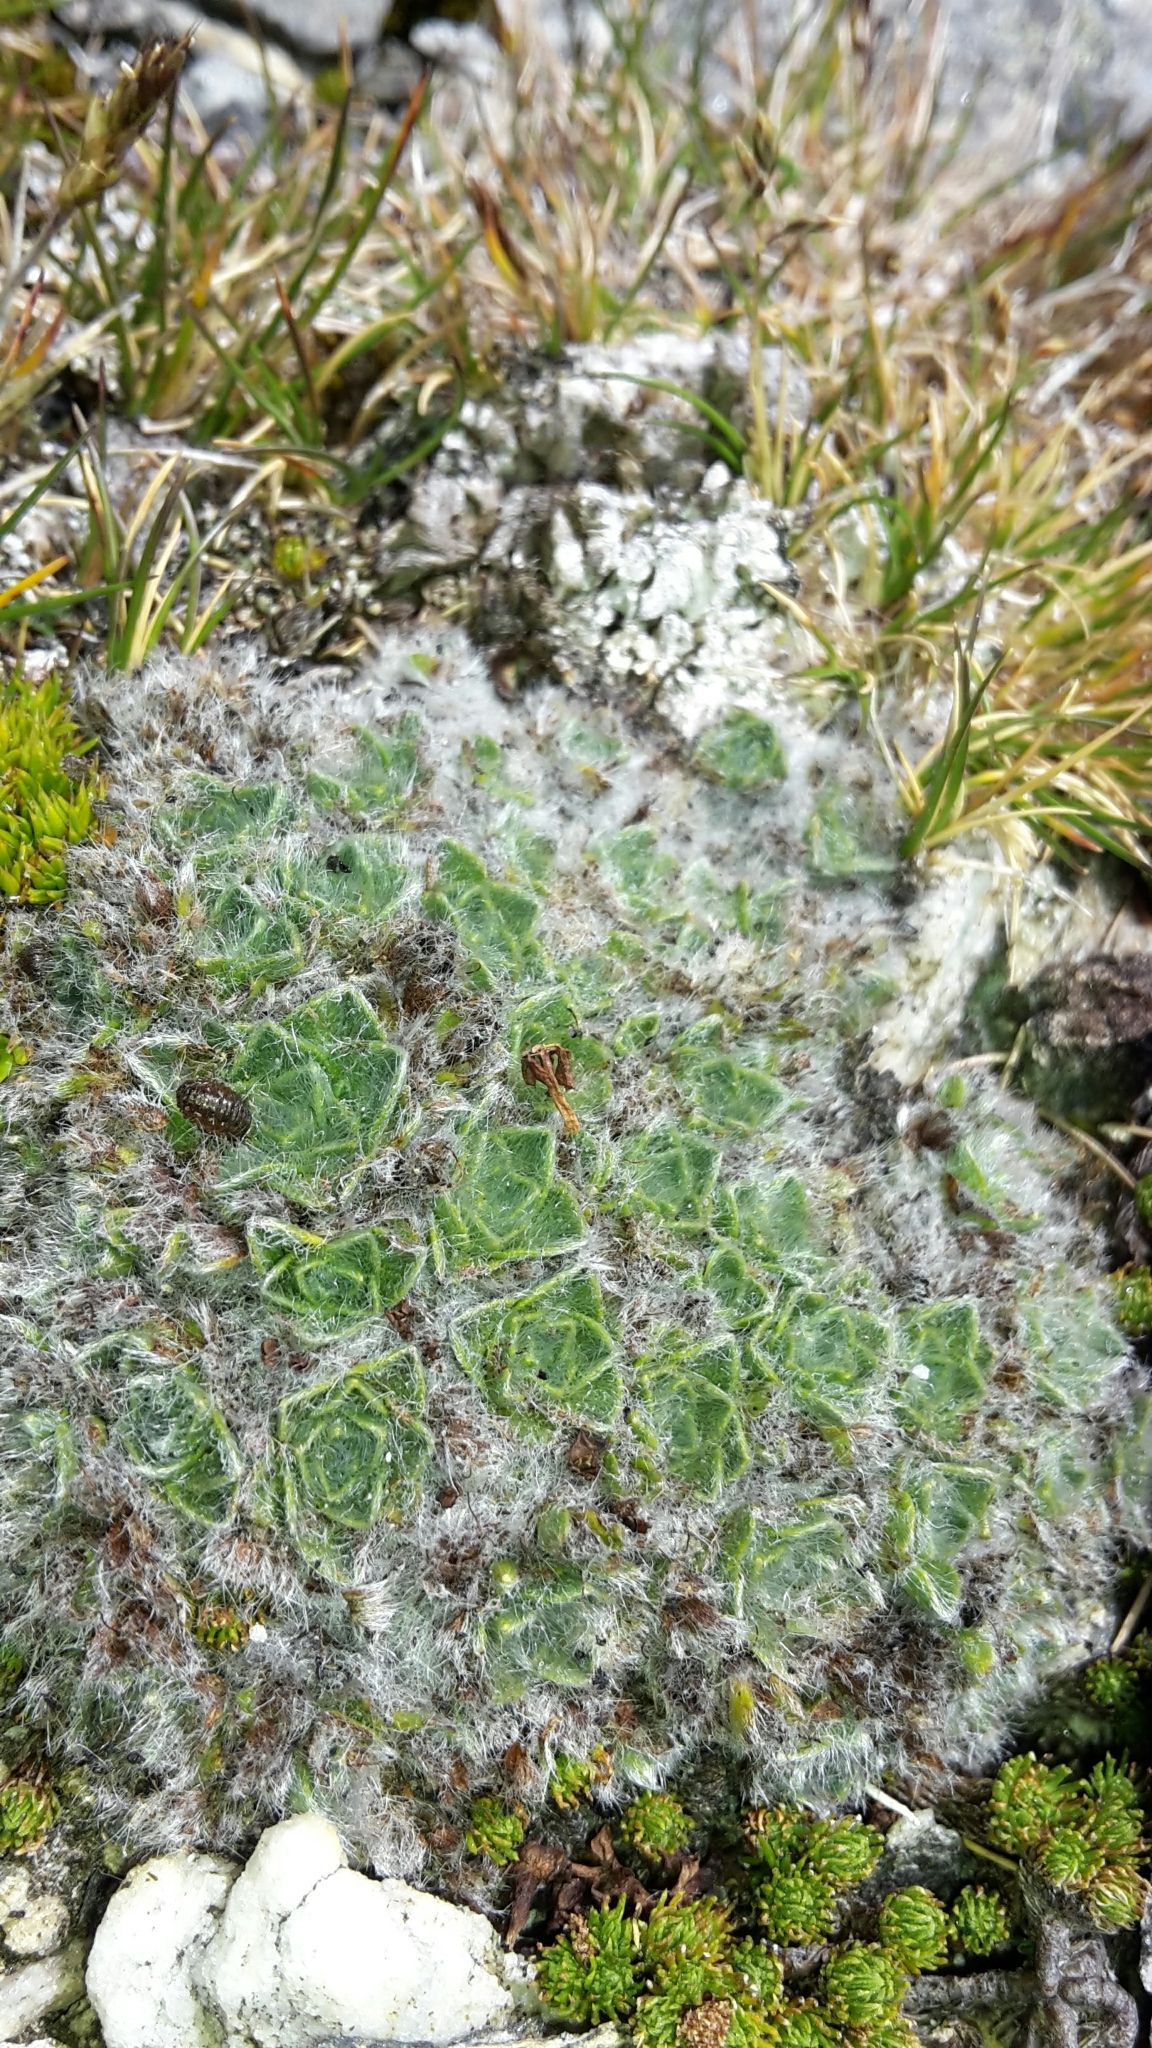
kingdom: Plantae
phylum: Tracheophyta
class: Magnoliopsida
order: Boraginales
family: Boraginaceae
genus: Myosotis
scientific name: Myosotis pulvinaris
